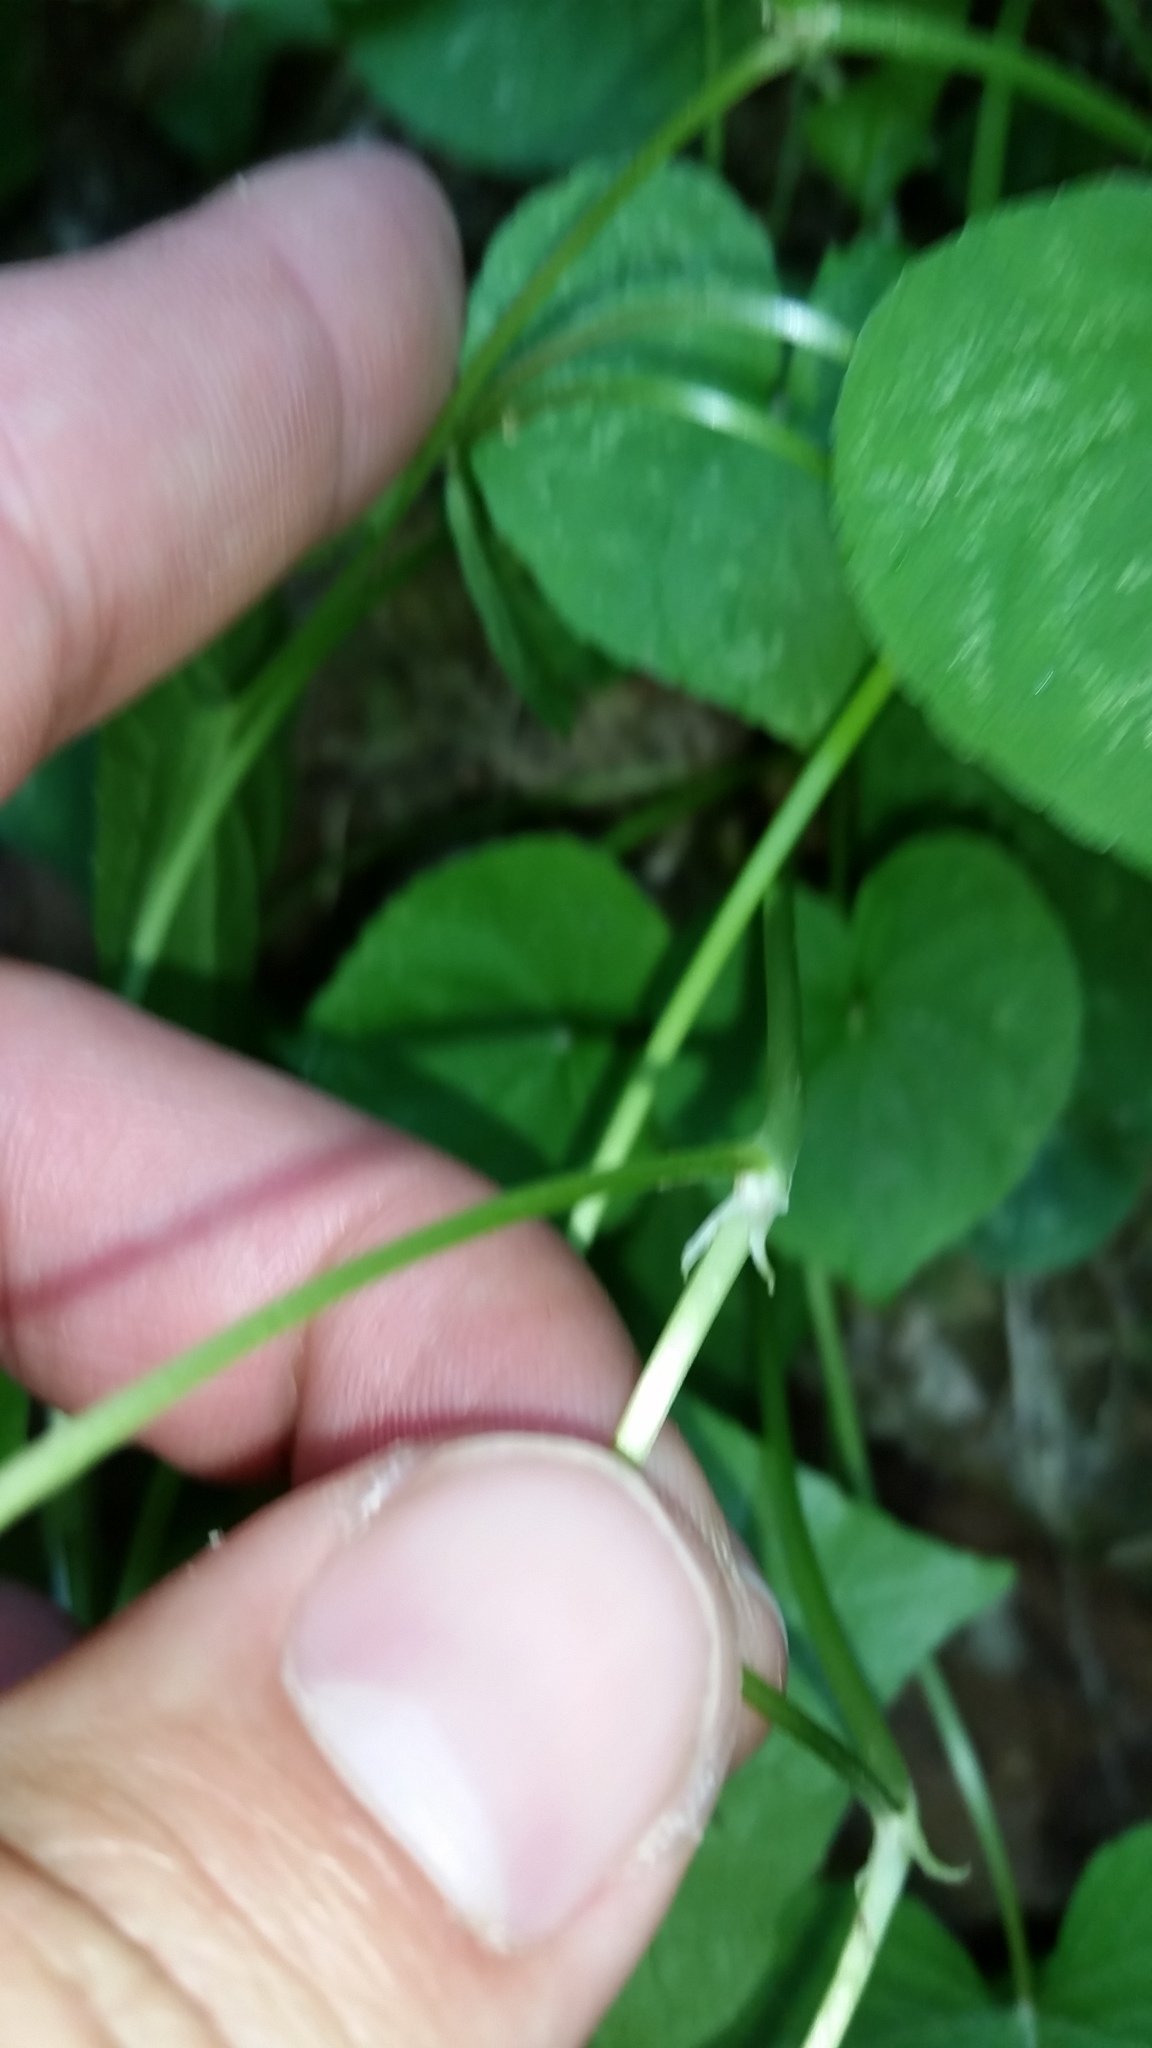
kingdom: Plantae
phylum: Tracheophyta
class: Magnoliopsida
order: Malpighiales
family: Violaceae
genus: Viola
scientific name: Viola canadensis
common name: Canada violet
